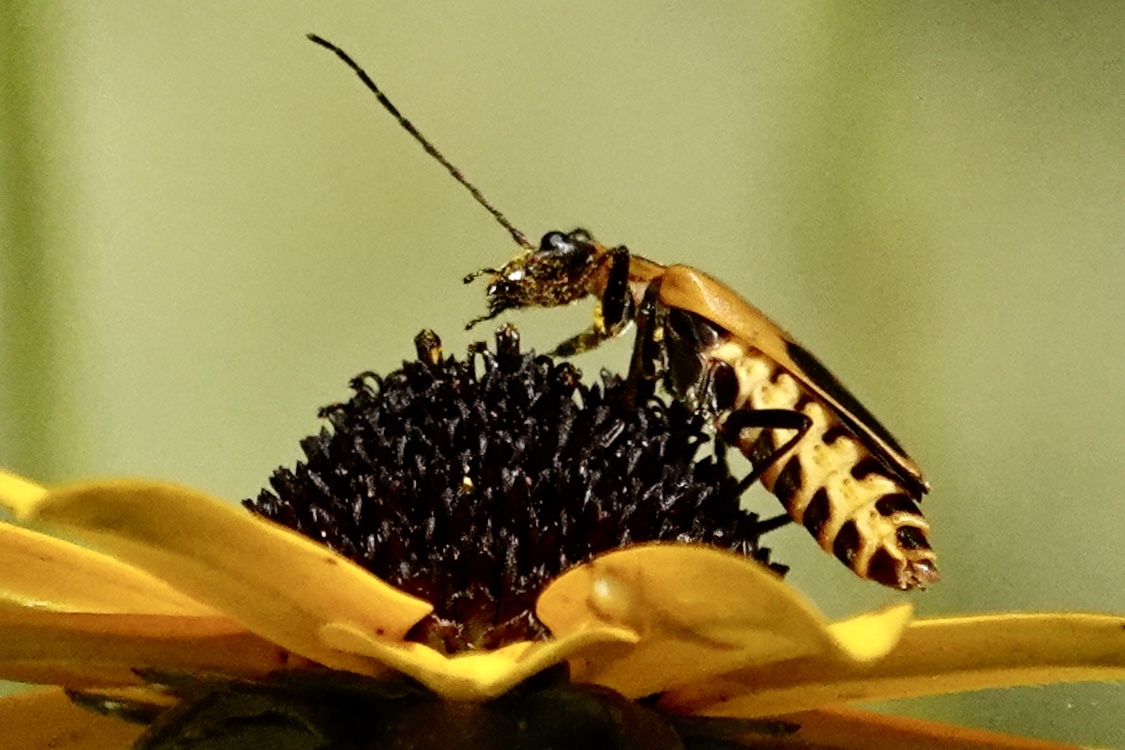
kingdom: Animalia
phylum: Arthropoda
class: Insecta
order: Coleoptera
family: Cantharidae
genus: Chauliognathus
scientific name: Chauliognathus pensylvanicus
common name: Goldenrod soldier beetle
